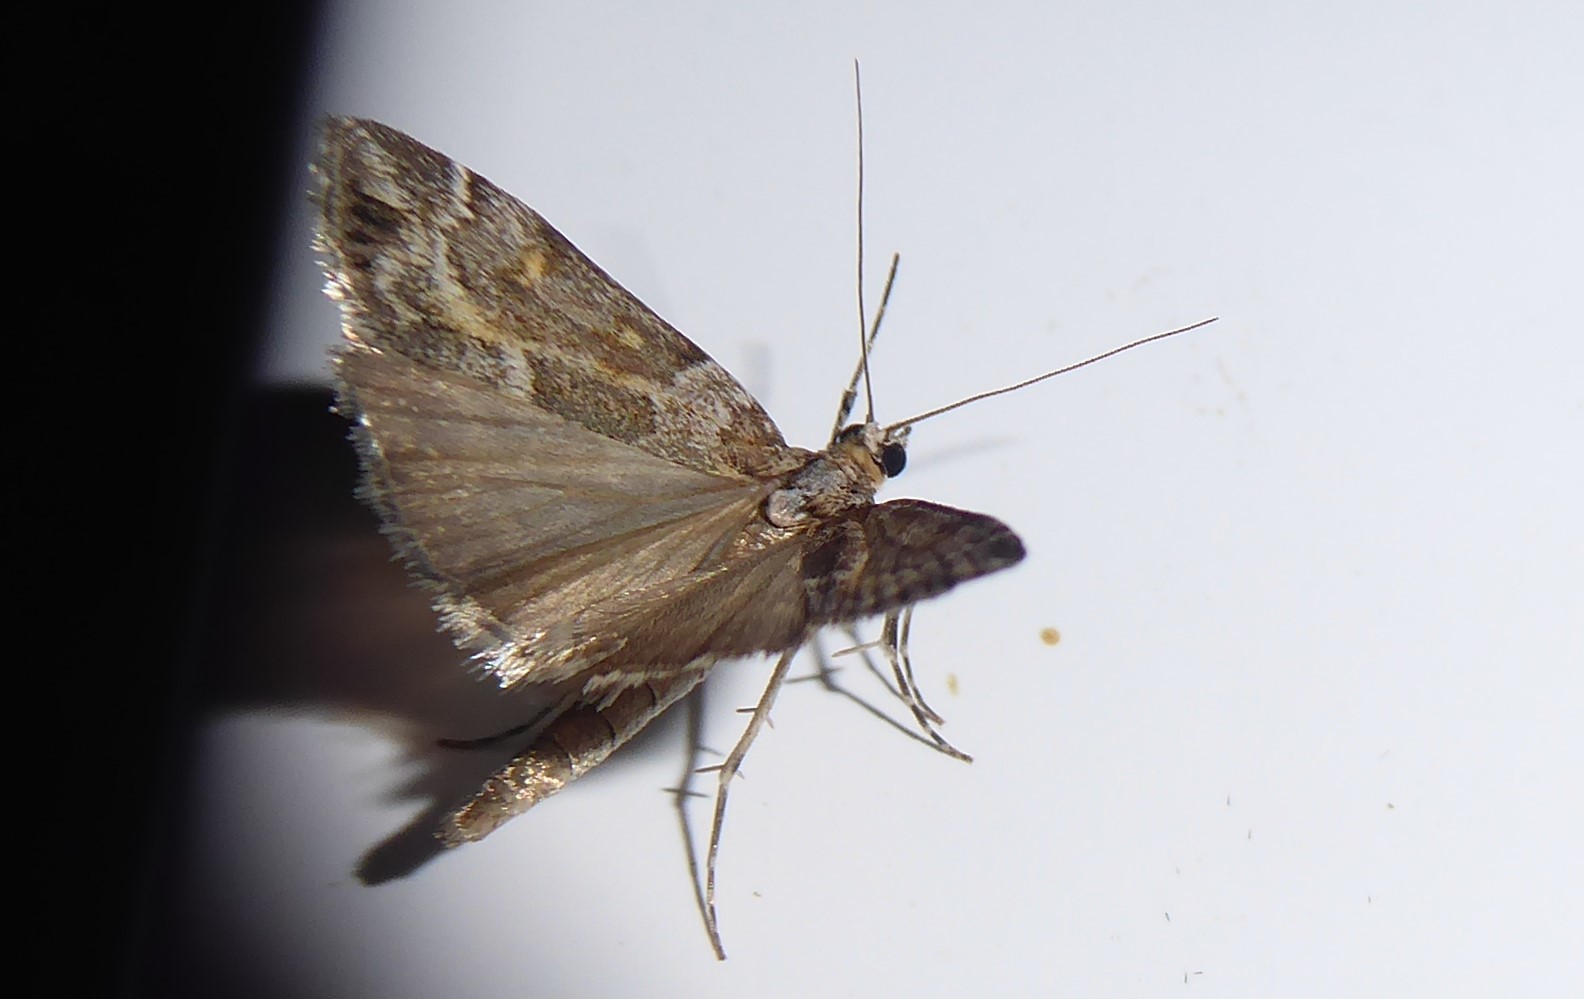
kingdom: Animalia
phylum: Arthropoda
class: Insecta
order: Lepidoptera
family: Crambidae
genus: Eudonia
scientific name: Eudonia diphtheralis
